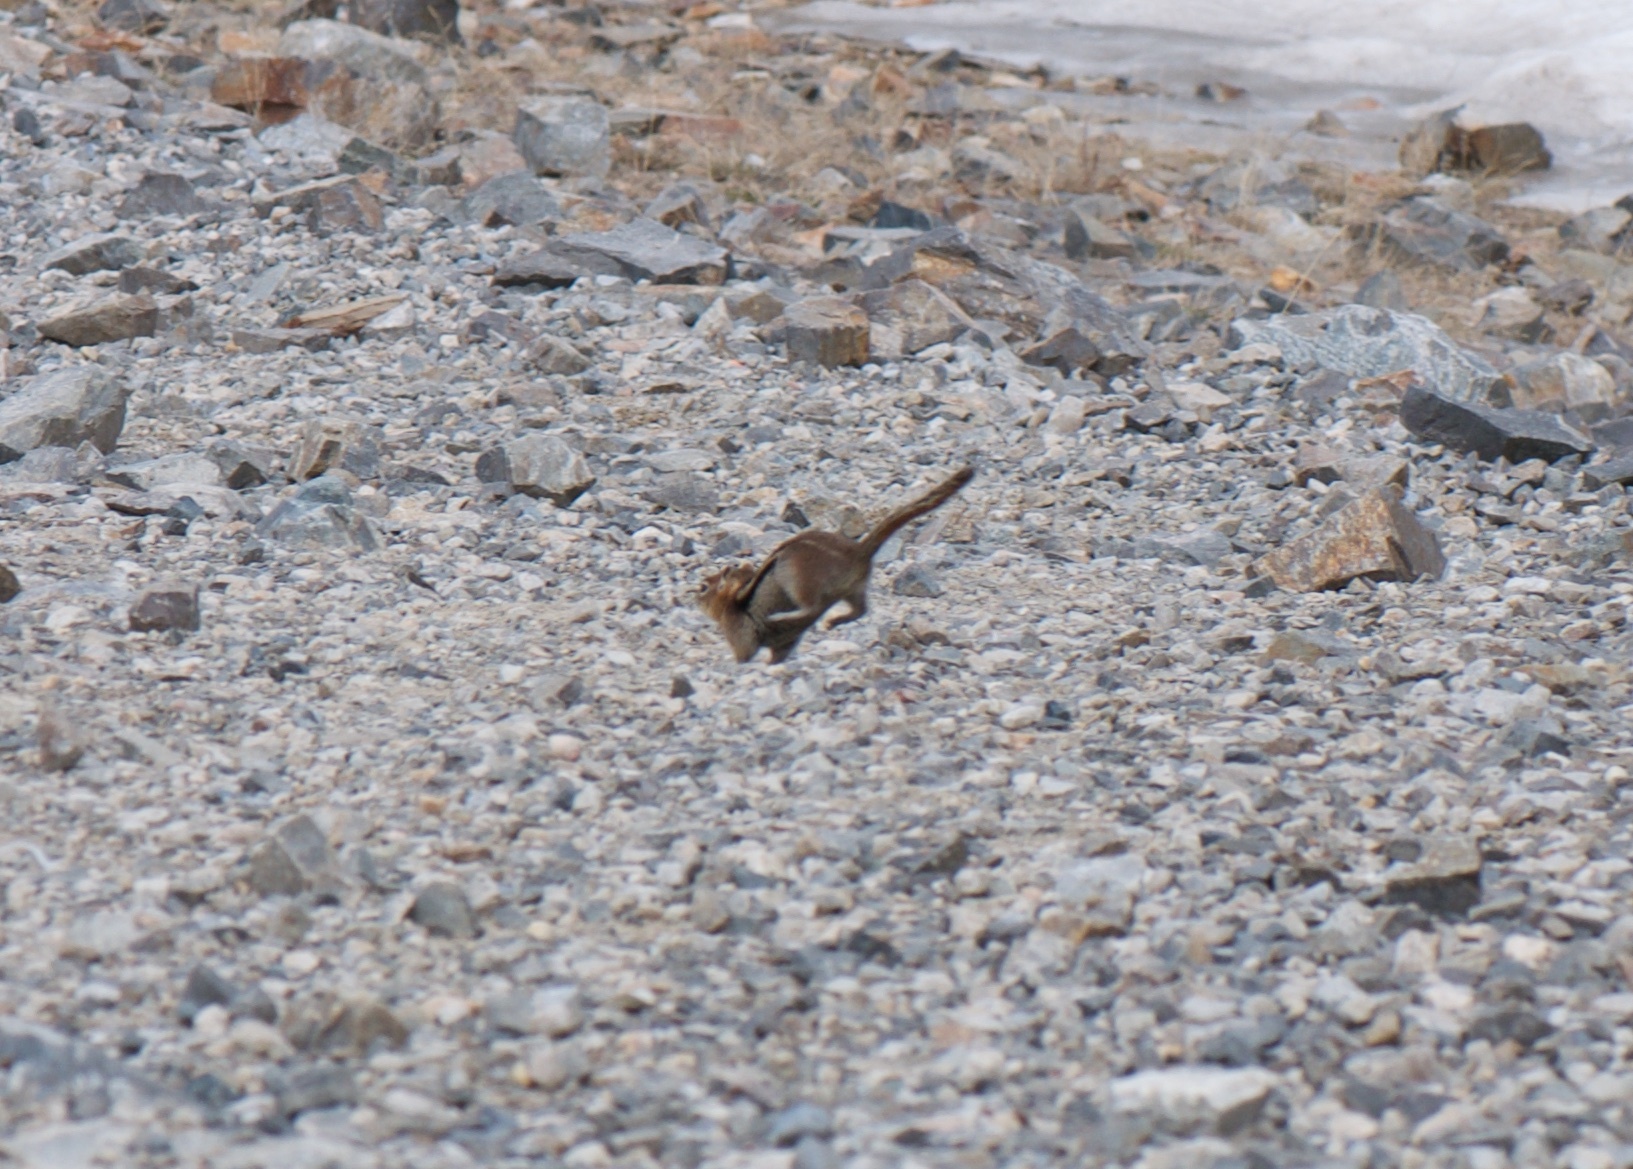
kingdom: Animalia
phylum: Chordata
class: Mammalia
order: Rodentia
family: Sciuridae
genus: Callospermophilus
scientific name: Callospermophilus lateralis
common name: Golden-mantled ground squirrel
